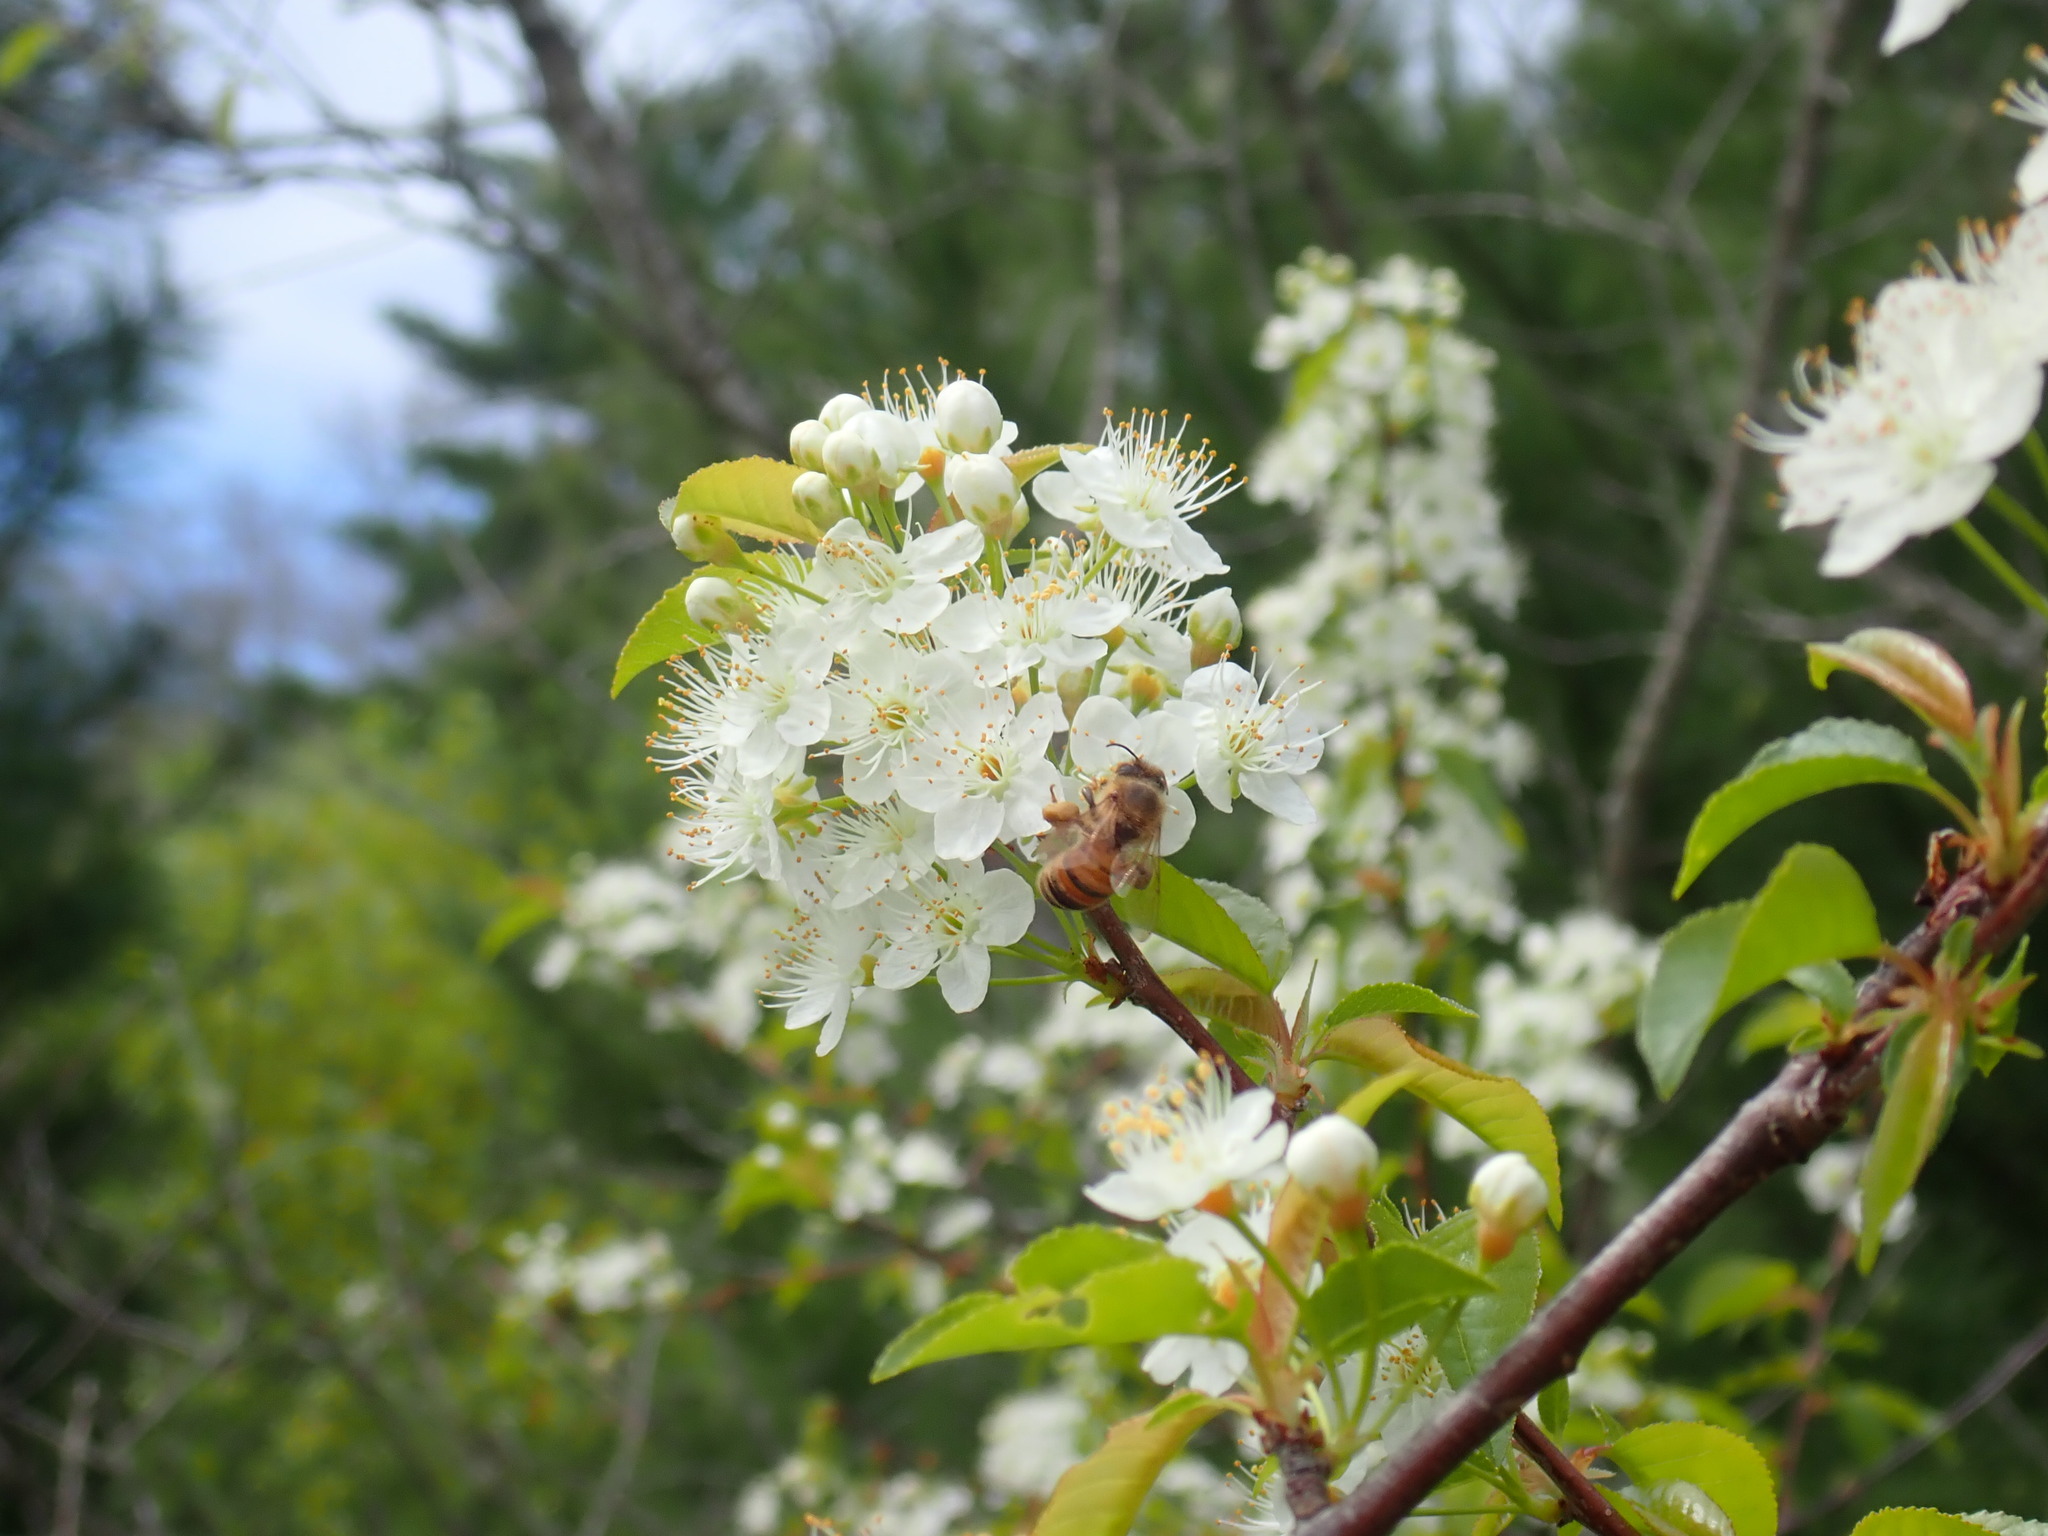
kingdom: Animalia
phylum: Arthropoda
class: Insecta
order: Hymenoptera
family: Apidae
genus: Apis
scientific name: Apis mellifera
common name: Honey bee
